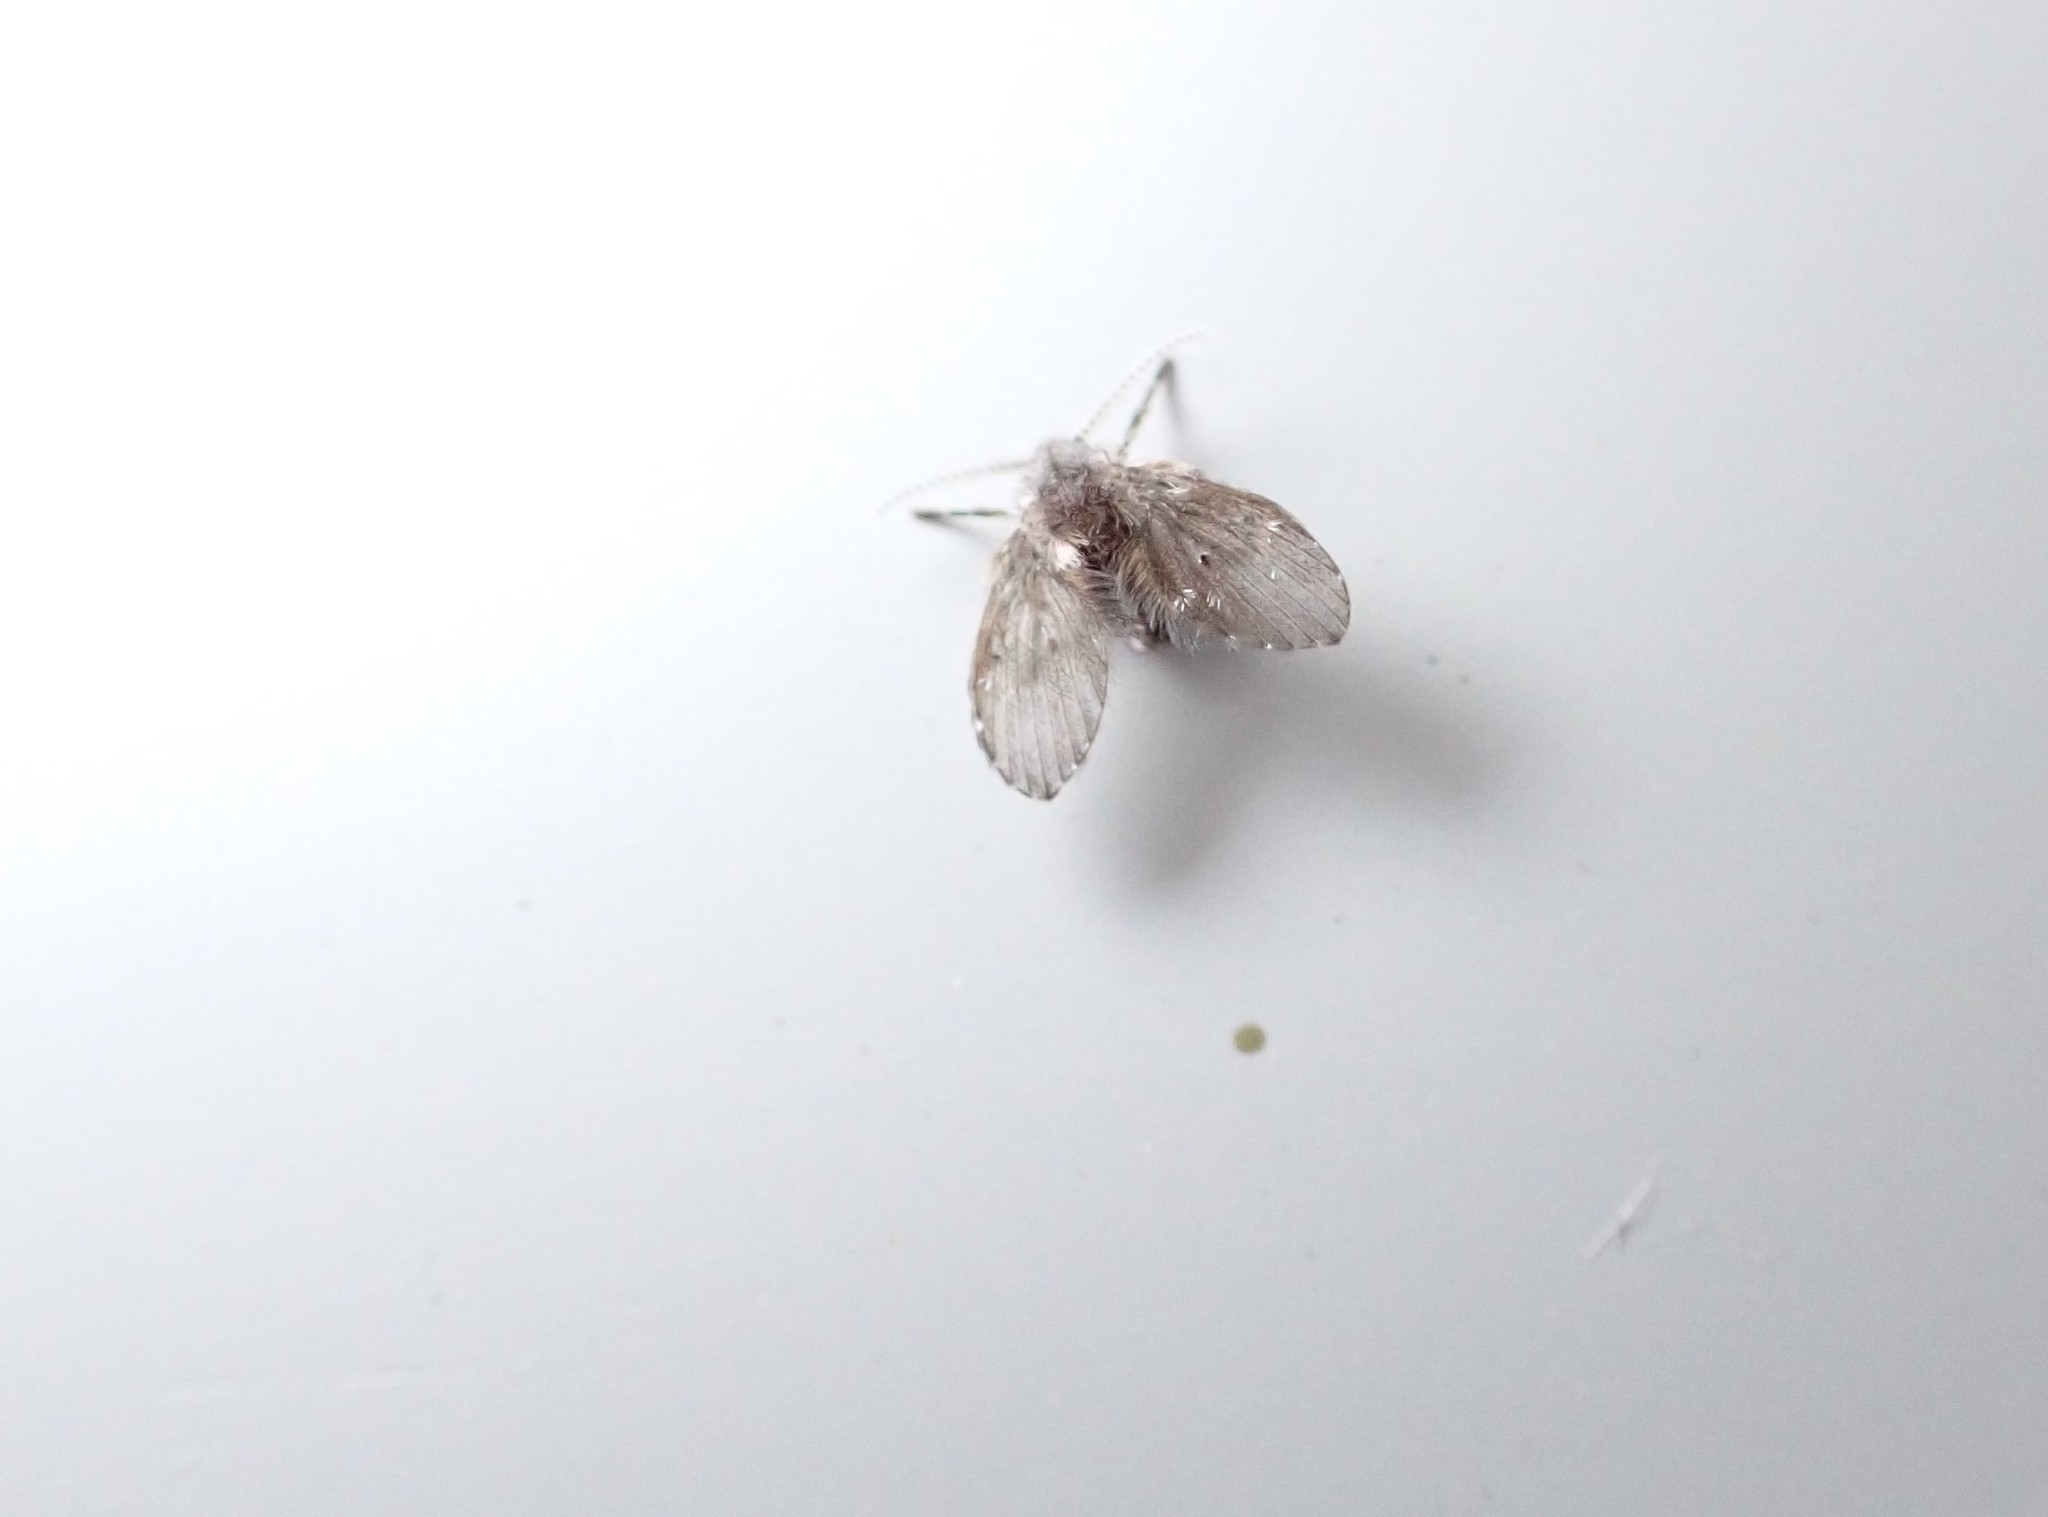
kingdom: Animalia
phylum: Arthropoda
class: Insecta
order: Diptera
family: Psychodidae
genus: Clogmia
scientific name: Clogmia albipunctatus
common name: White-spotted moth fly
